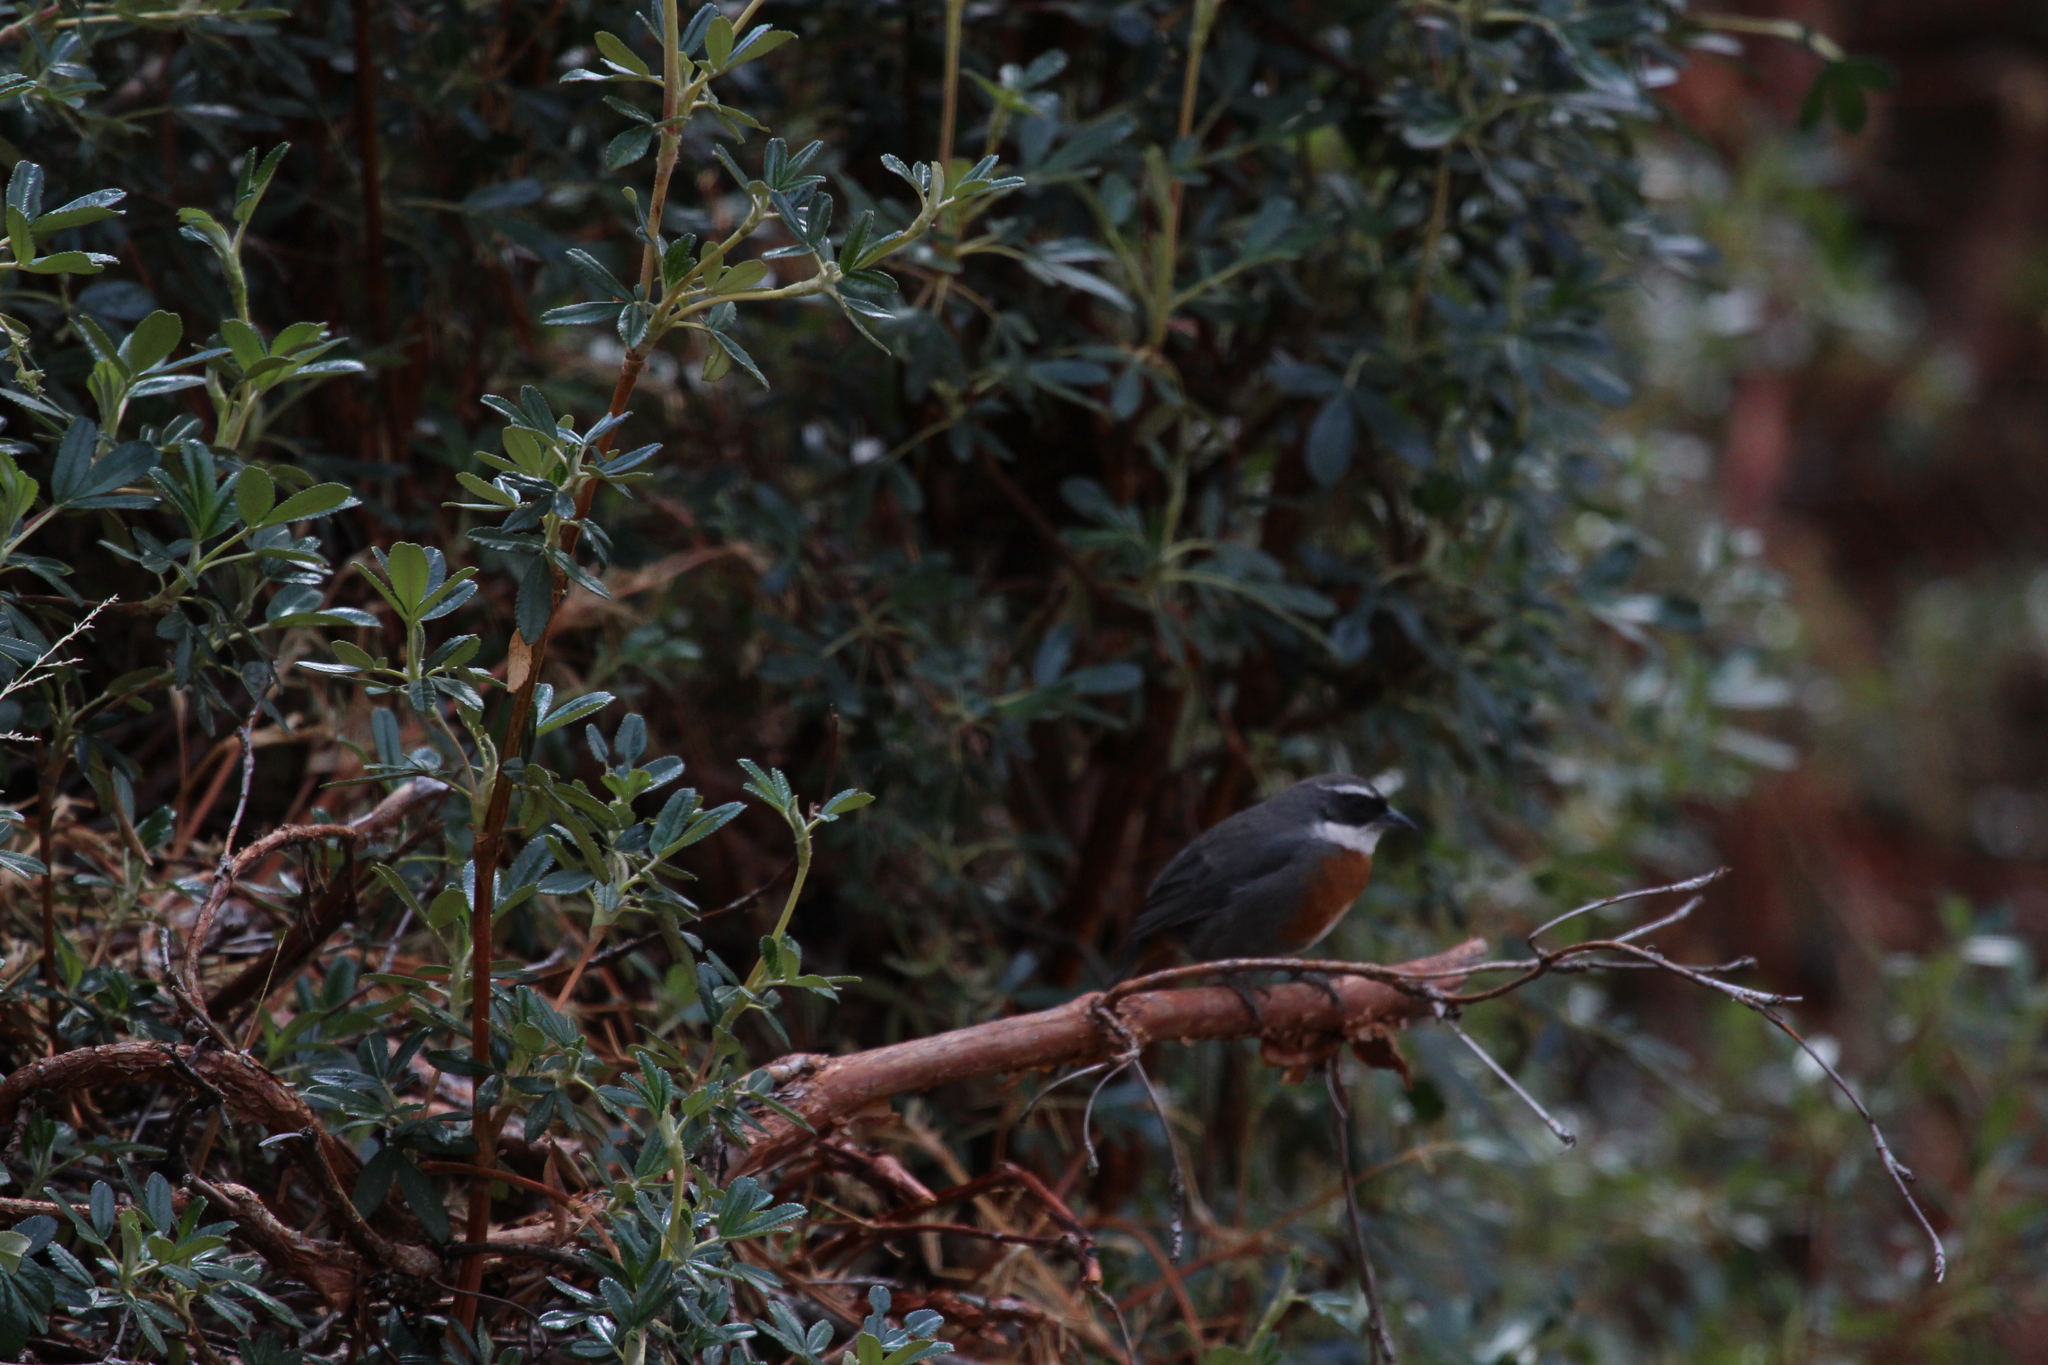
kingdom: Animalia
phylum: Chordata
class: Aves
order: Passeriformes
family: Thraupidae
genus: Poospizopsis
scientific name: Poospizopsis caesar
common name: Chestnut-breasted mountain-finch
